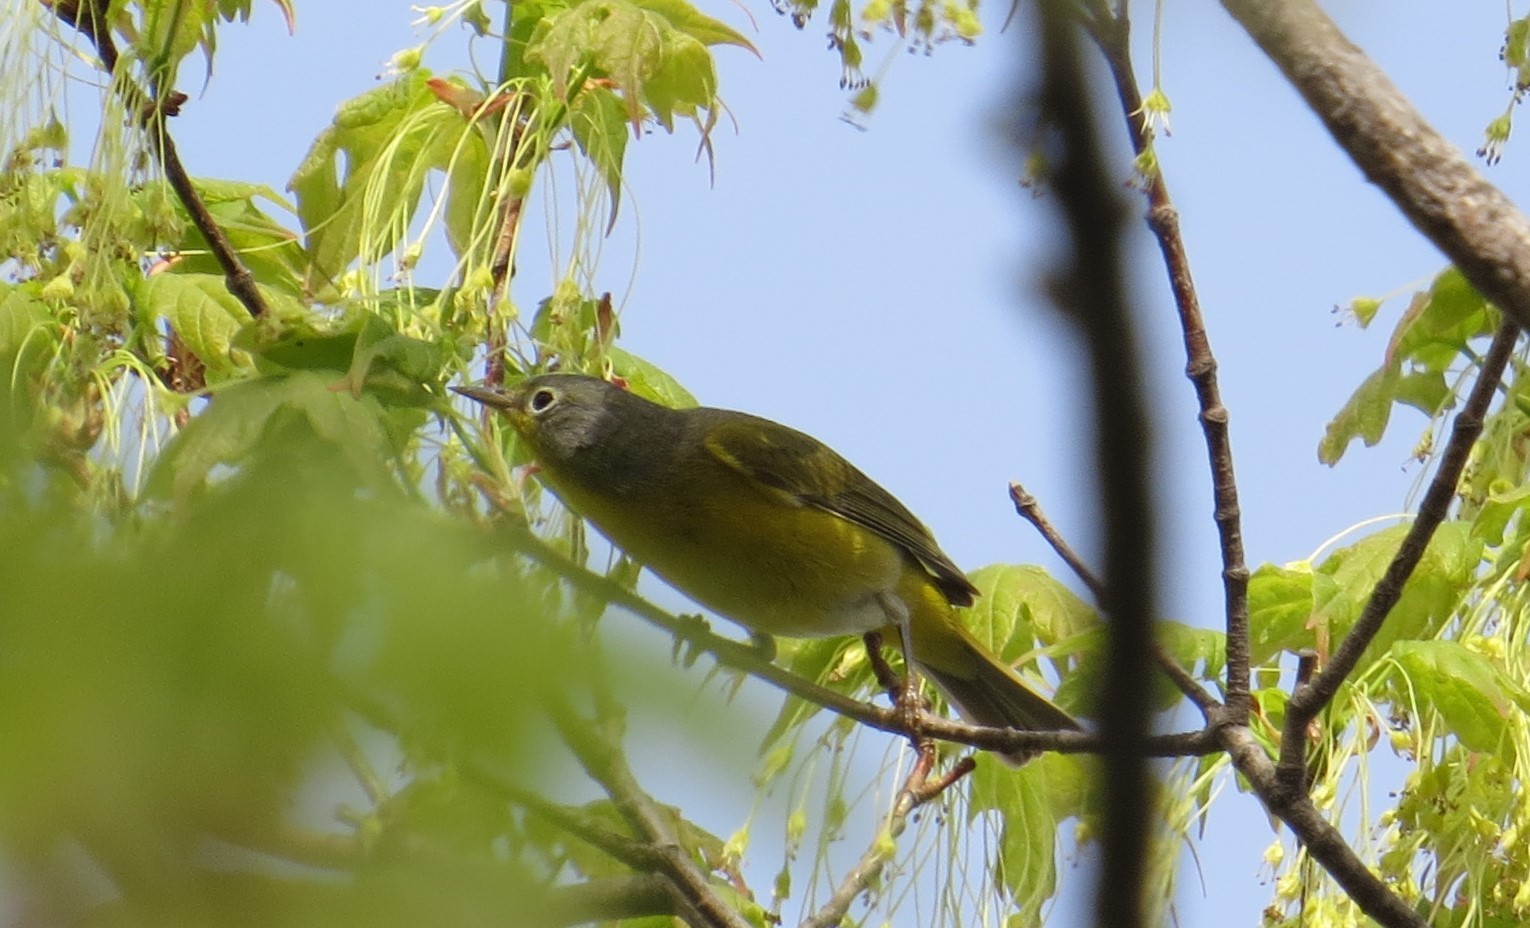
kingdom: Animalia
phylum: Chordata
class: Aves
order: Passeriformes
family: Parulidae
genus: Leiothlypis
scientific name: Leiothlypis ruficapilla
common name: Nashville warbler
